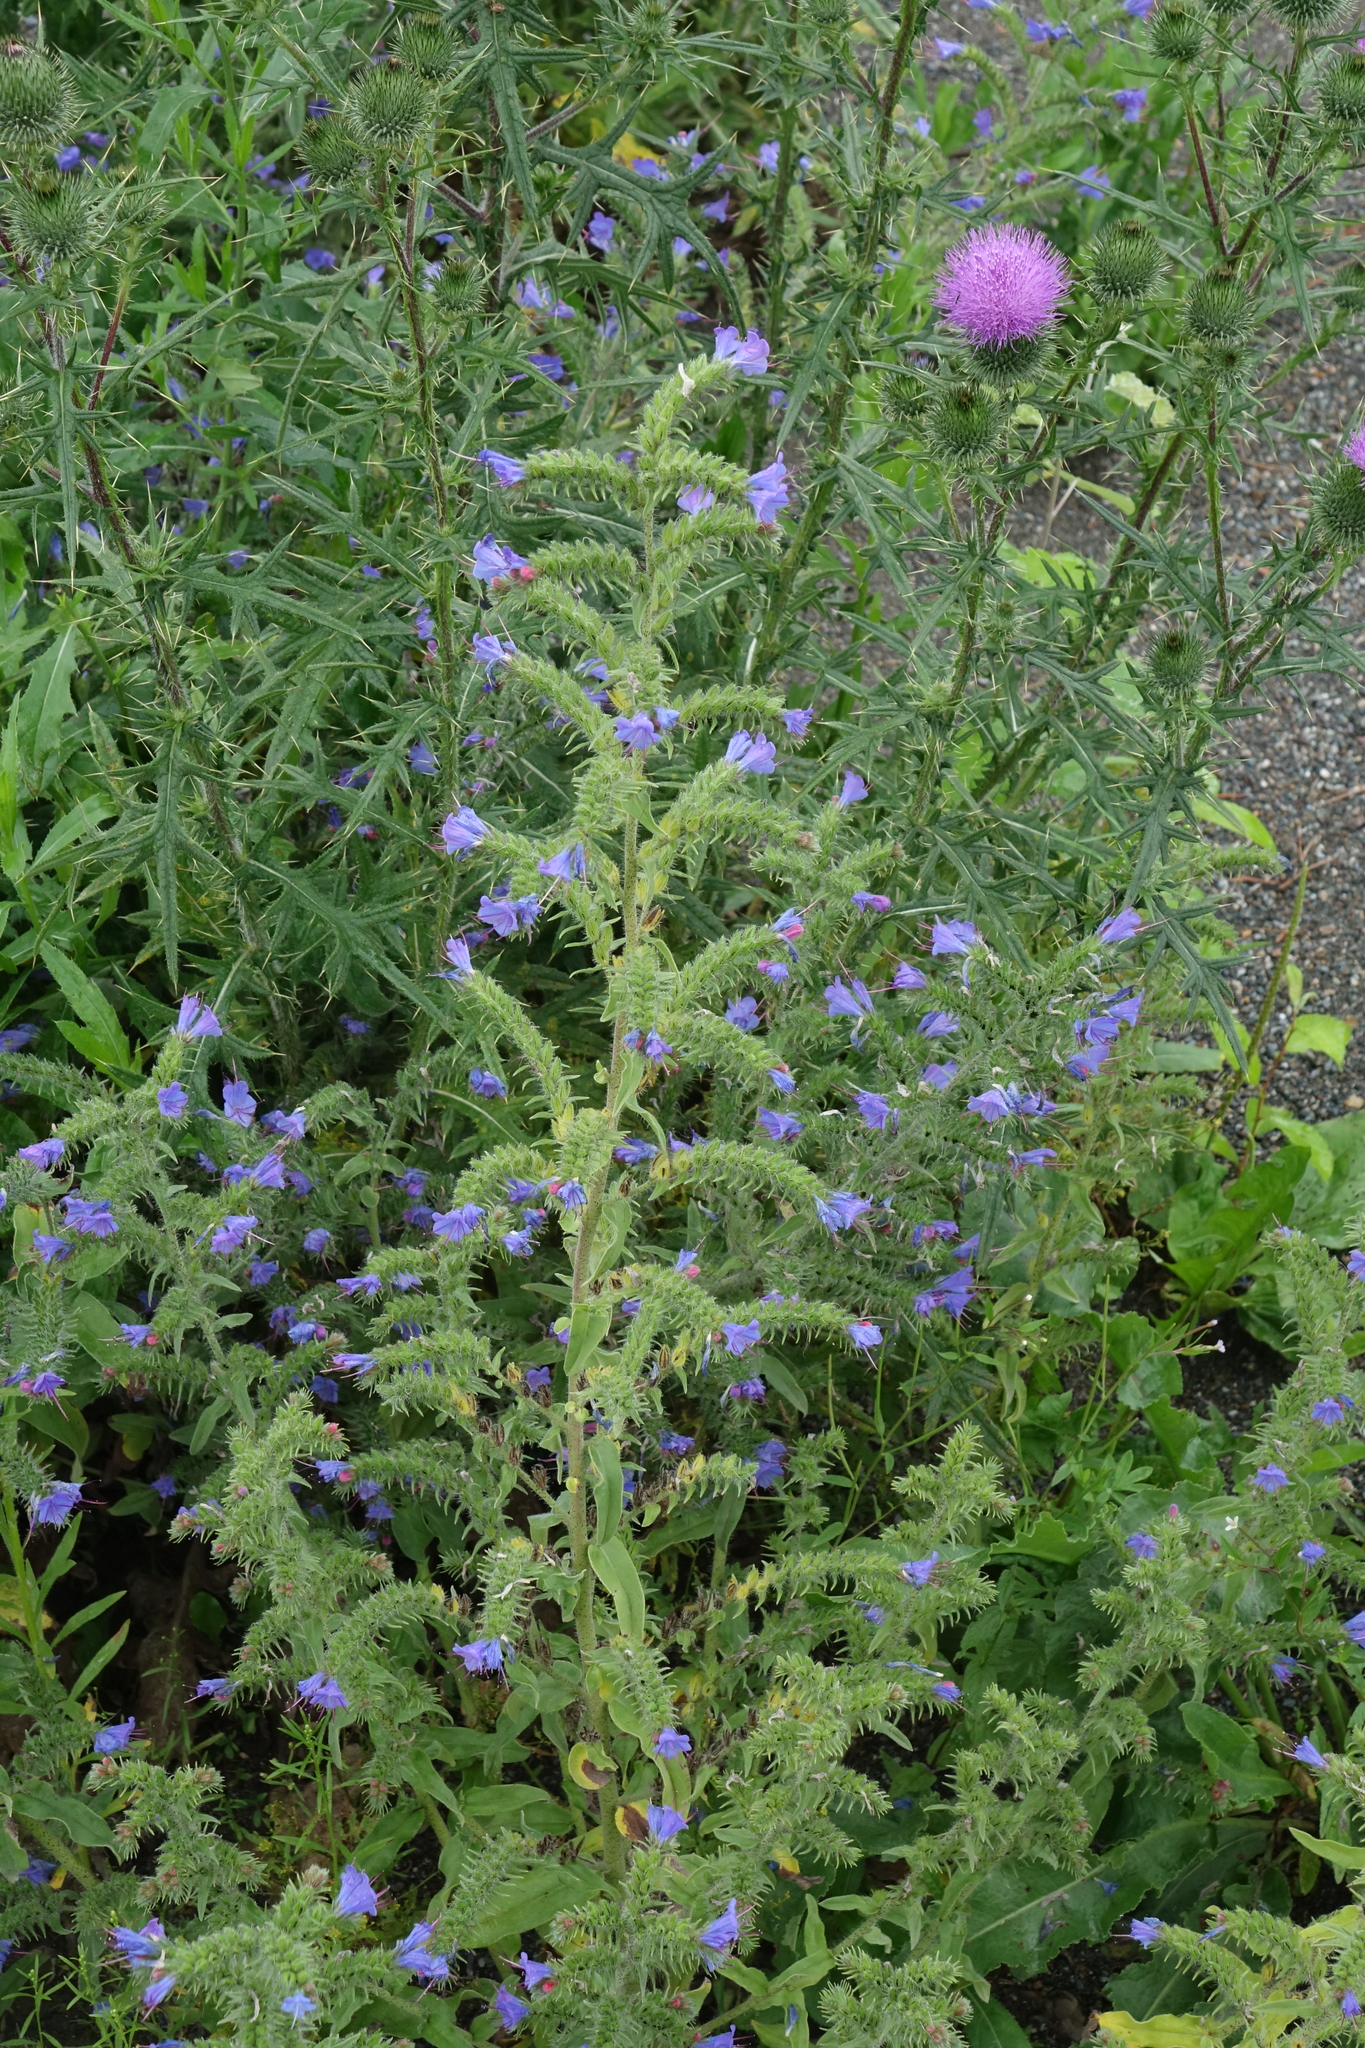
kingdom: Plantae
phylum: Tracheophyta
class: Magnoliopsida
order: Boraginales
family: Boraginaceae
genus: Echium
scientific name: Echium vulgare
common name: Common viper's bugloss
